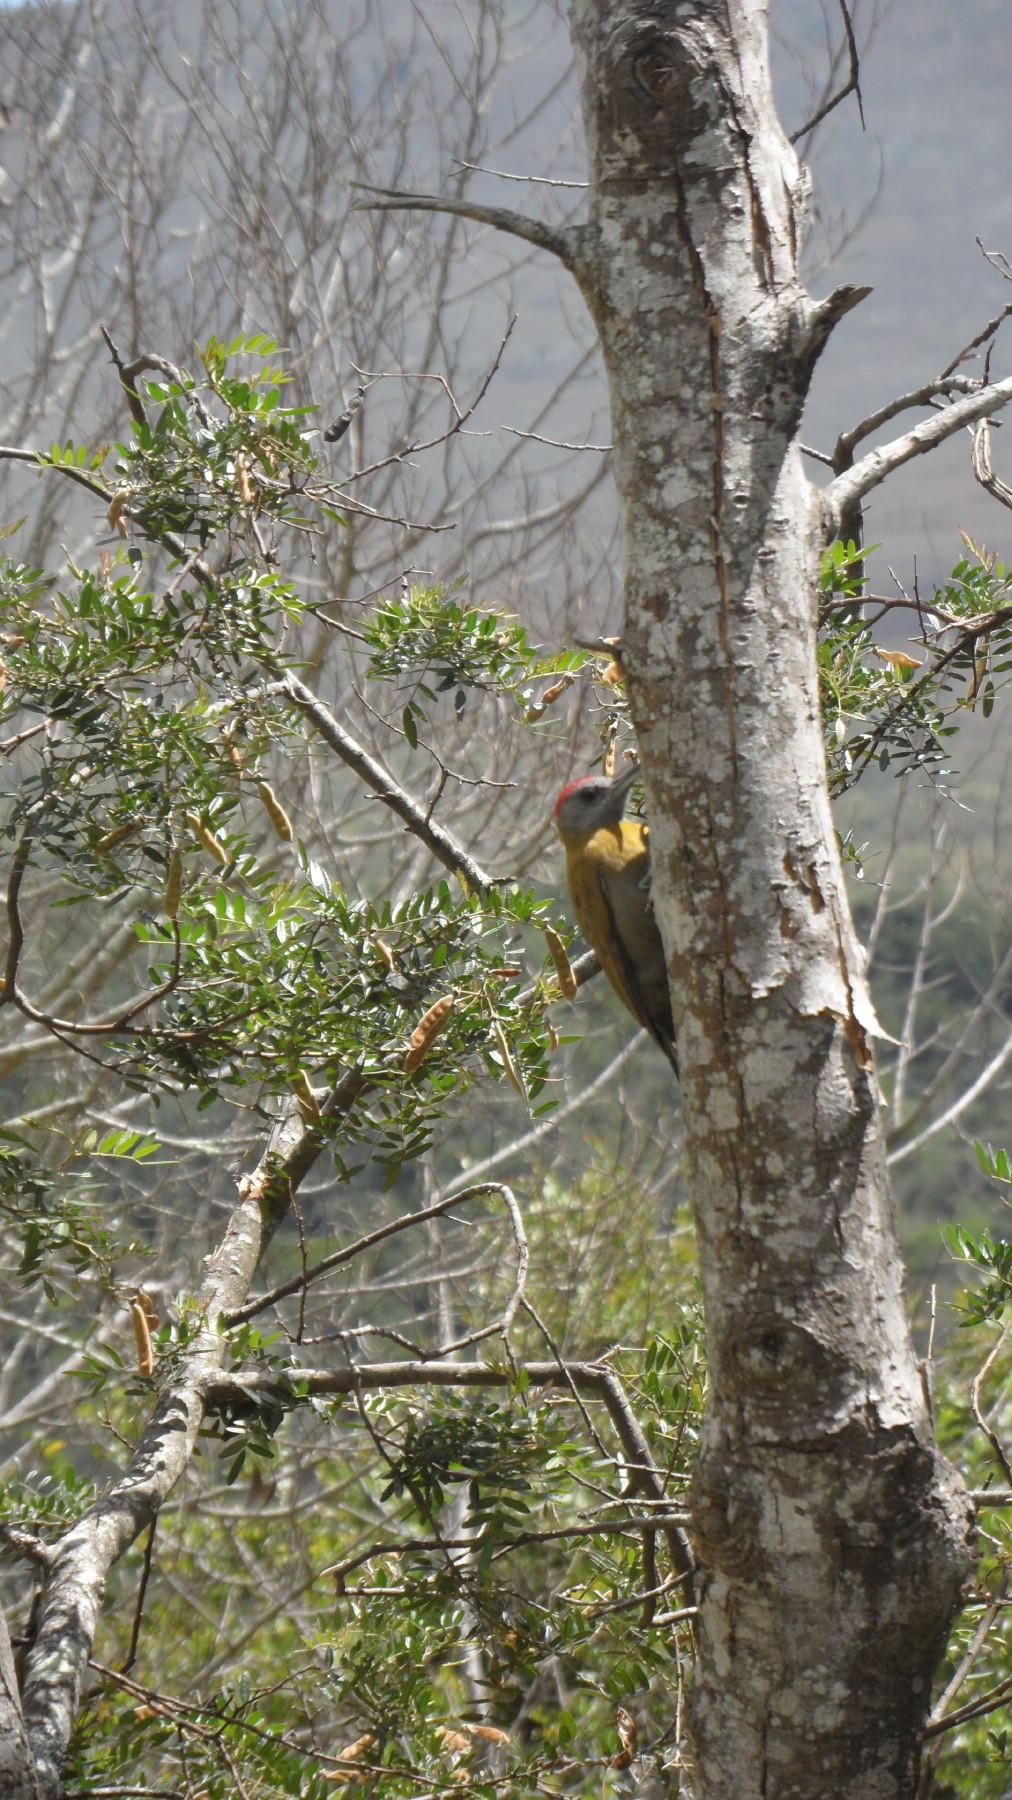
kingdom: Animalia
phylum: Chordata
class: Aves
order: Piciformes
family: Picidae
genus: Dendropicos
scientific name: Dendropicos griseocephalus
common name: Olive woodpecker
